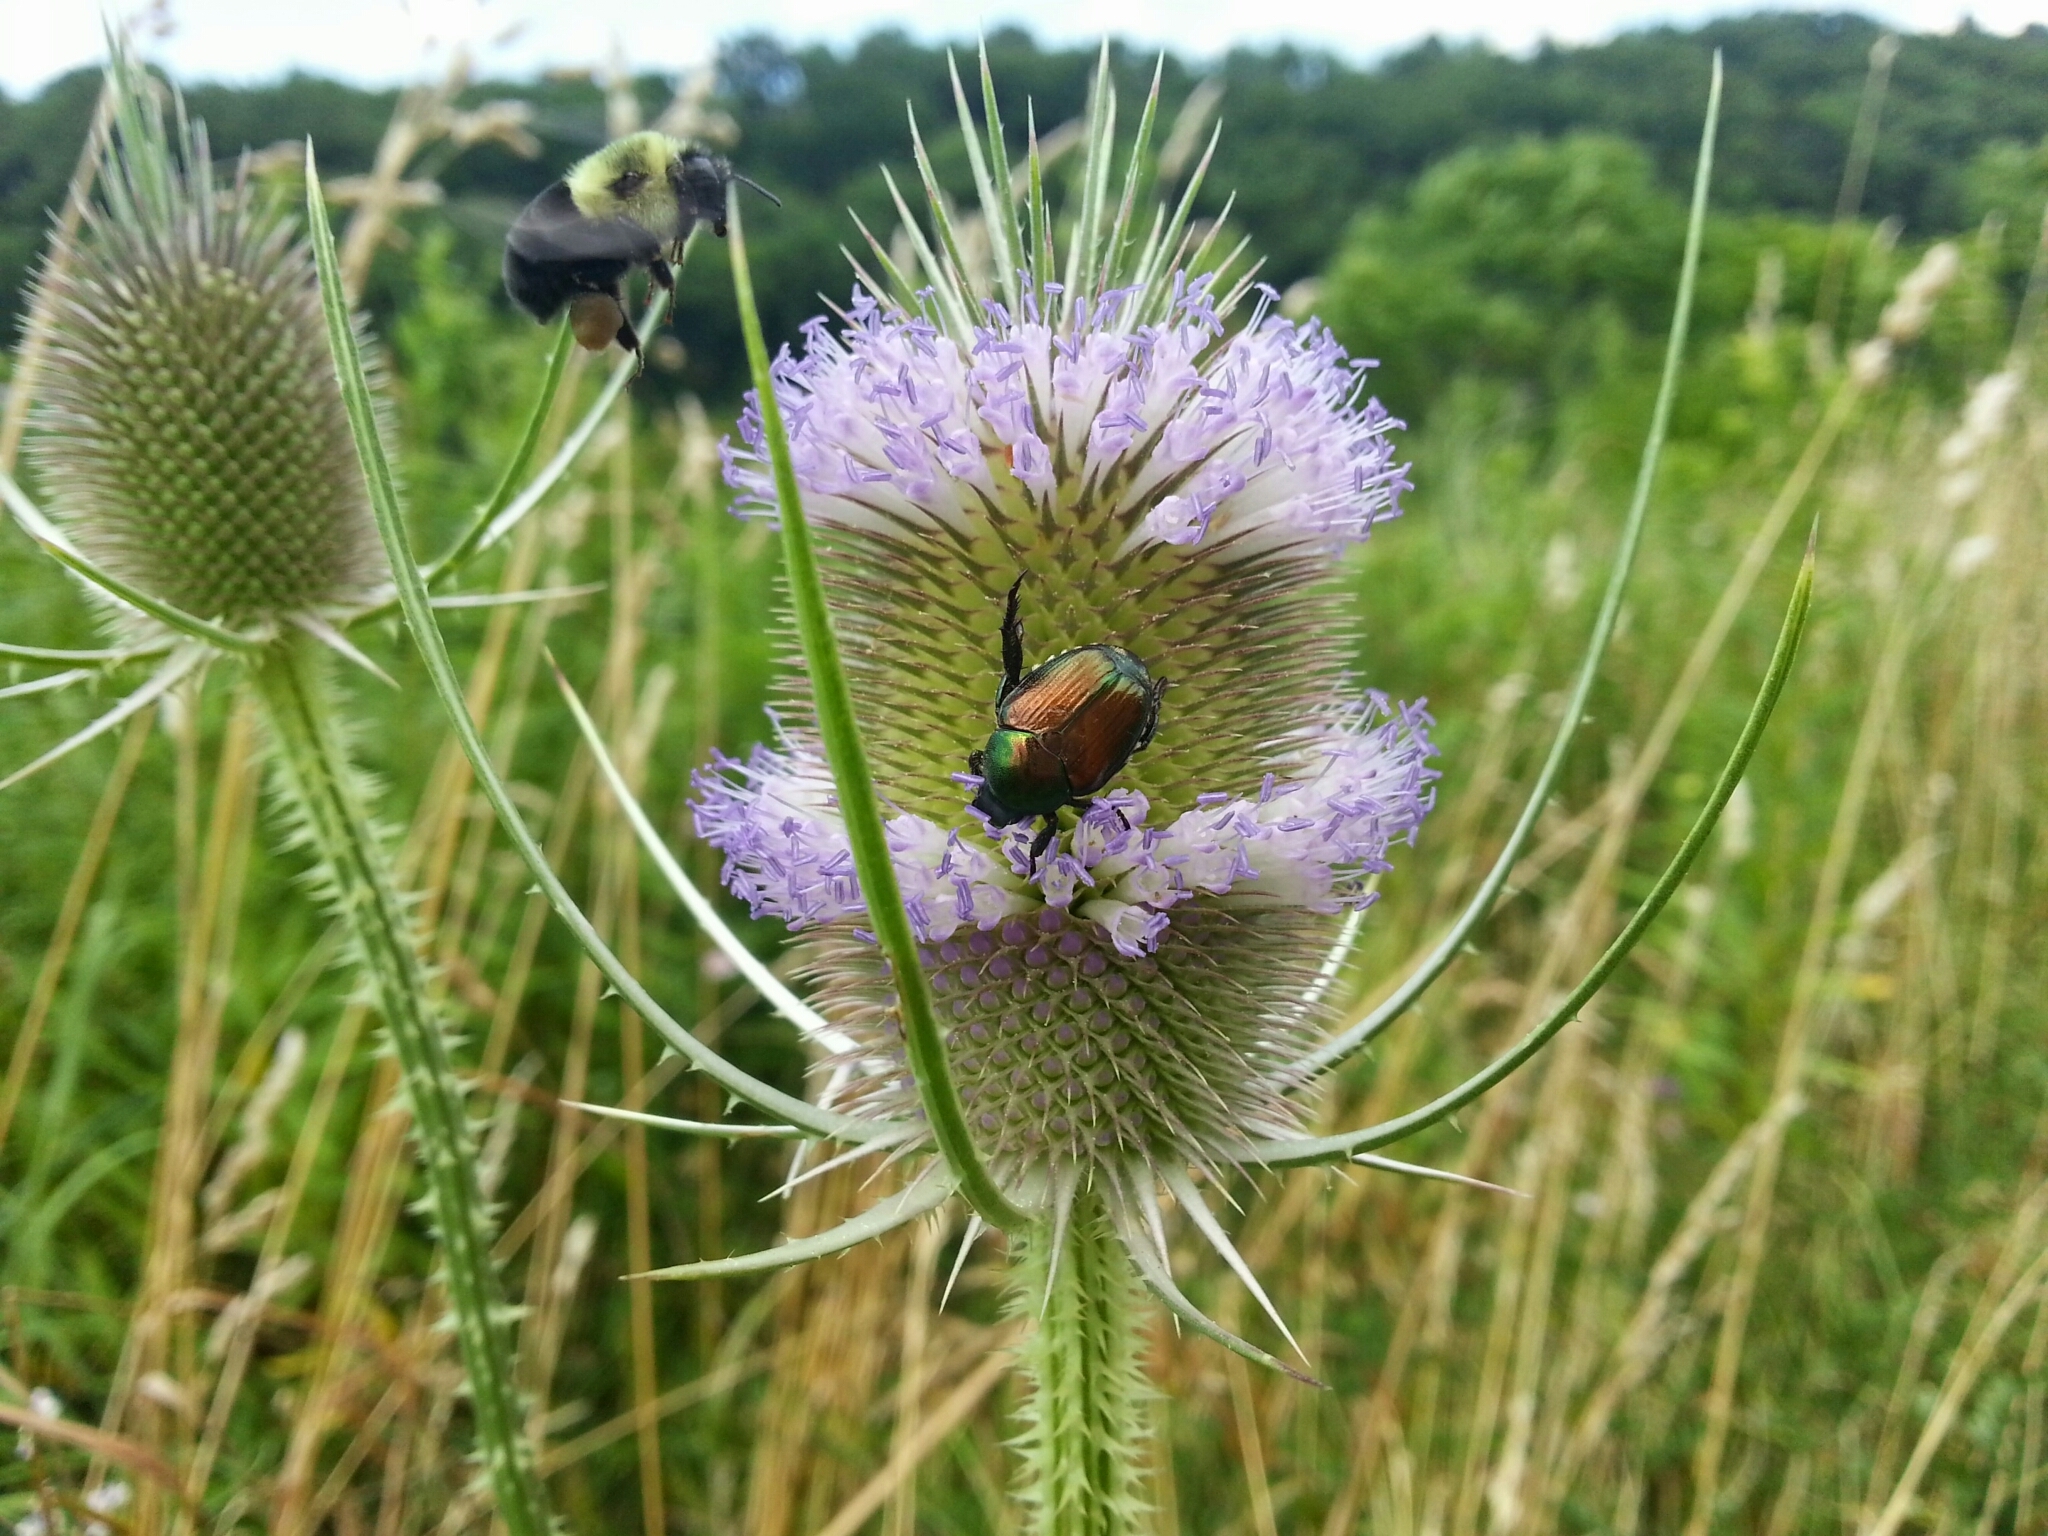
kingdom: Animalia
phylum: Arthropoda
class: Insecta
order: Coleoptera
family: Scarabaeidae
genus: Popillia
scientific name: Popillia japonica
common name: Japanese beetle
